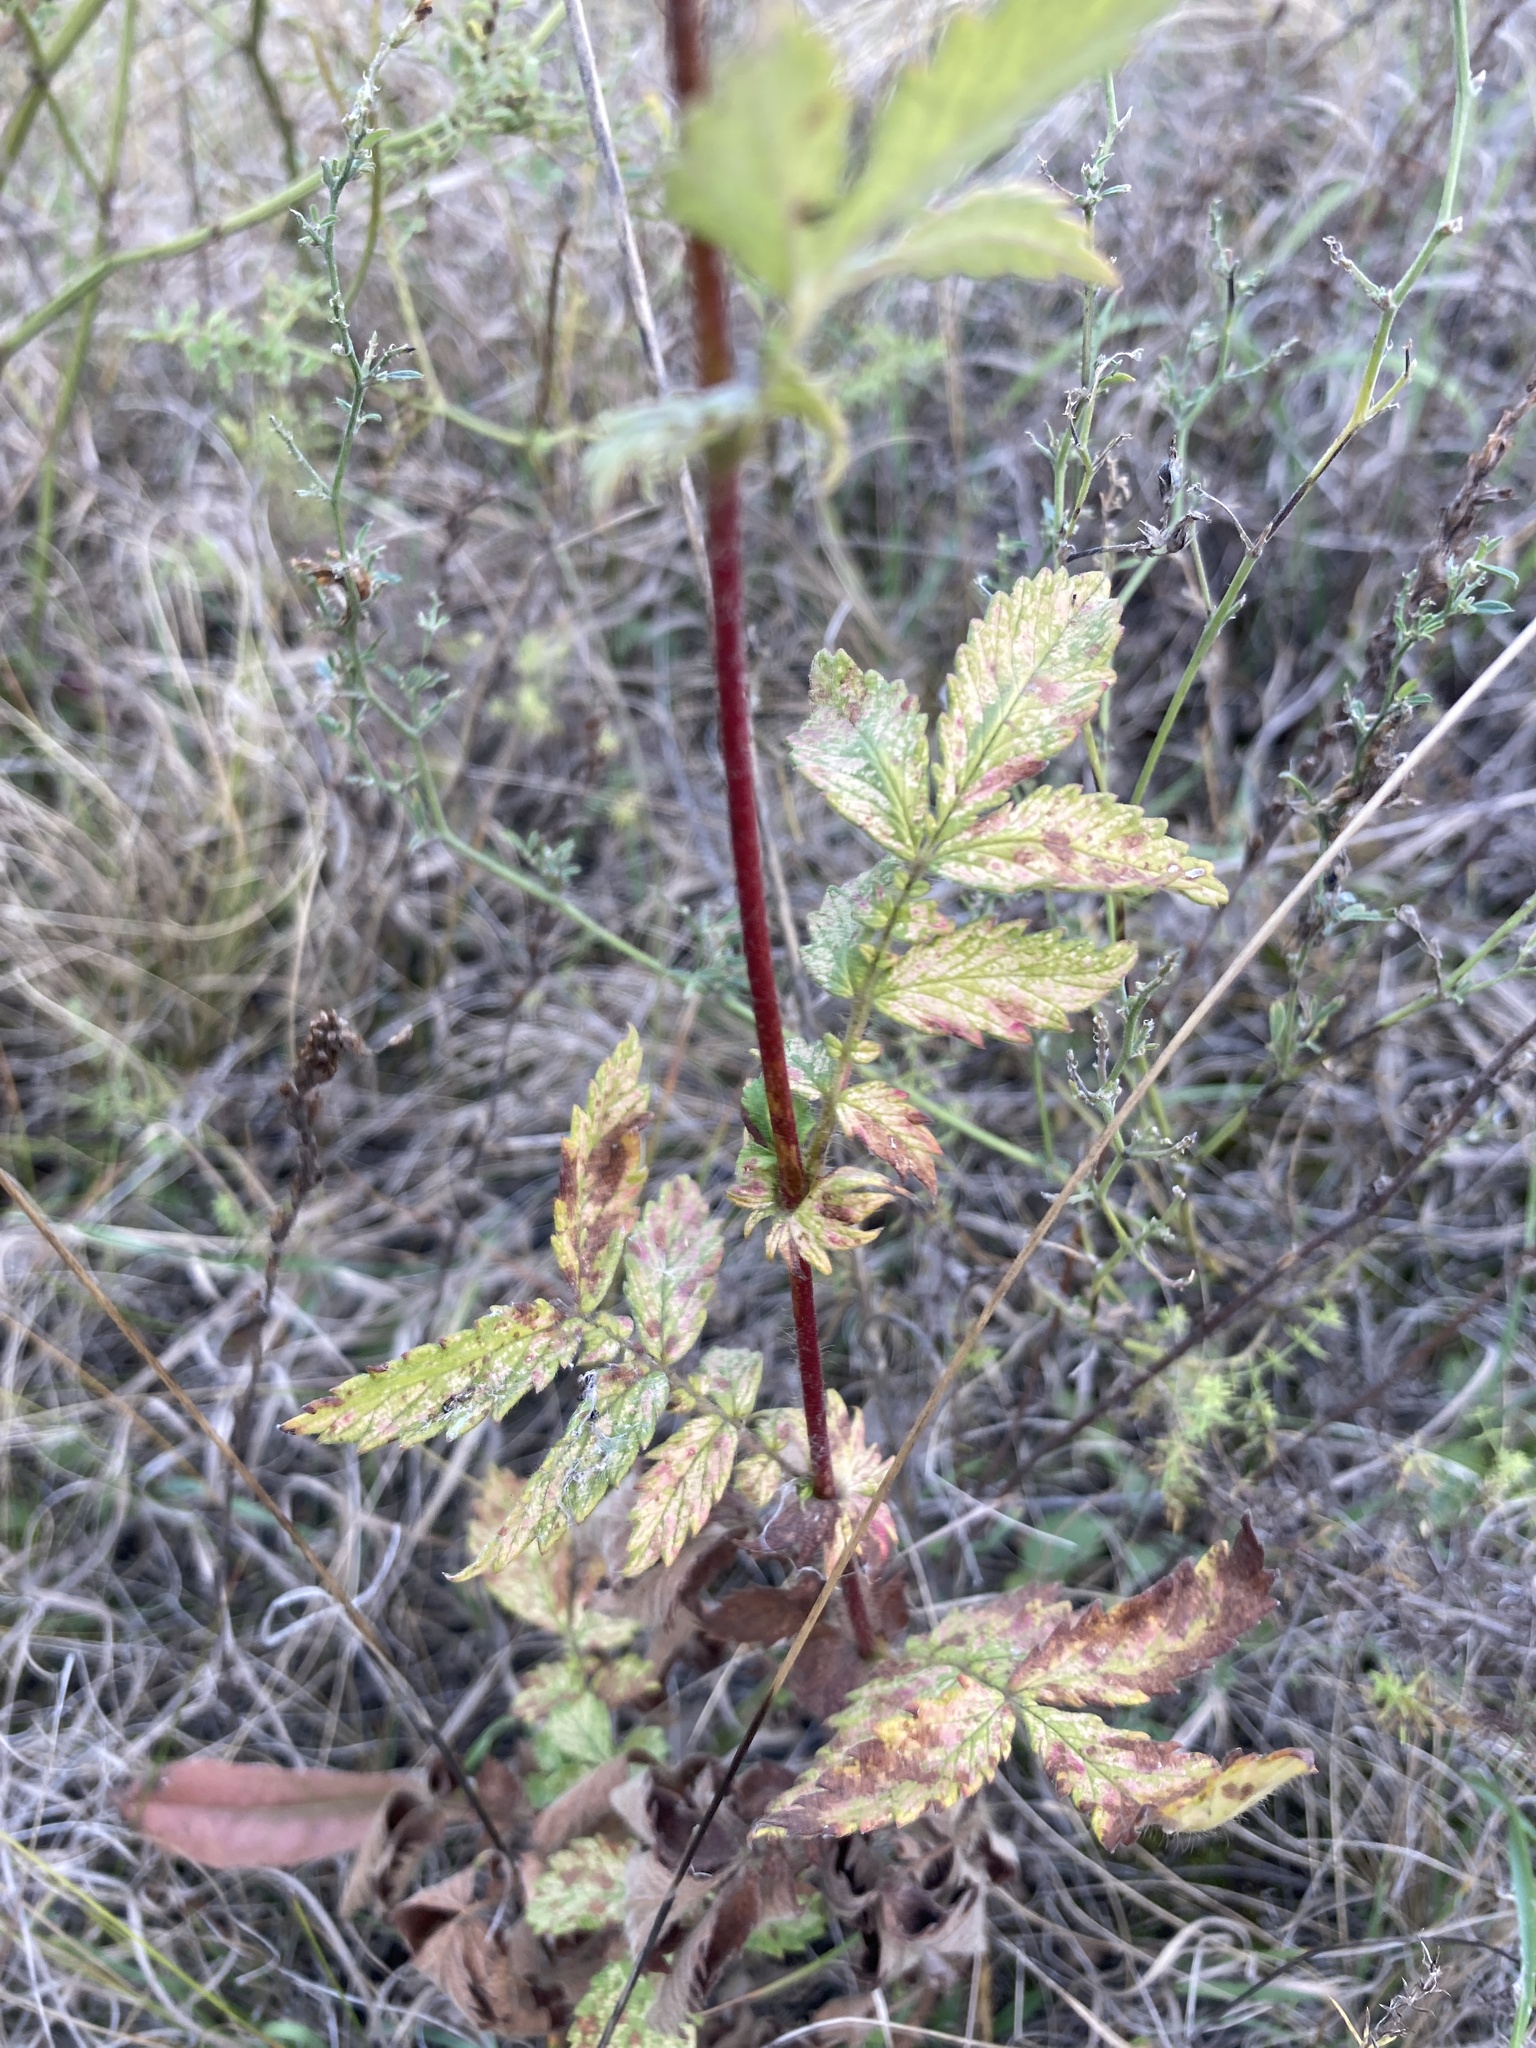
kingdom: Plantae
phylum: Tracheophyta
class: Magnoliopsida
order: Rosales
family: Rosaceae
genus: Agrimonia
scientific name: Agrimonia eupatoria
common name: Agrimony
